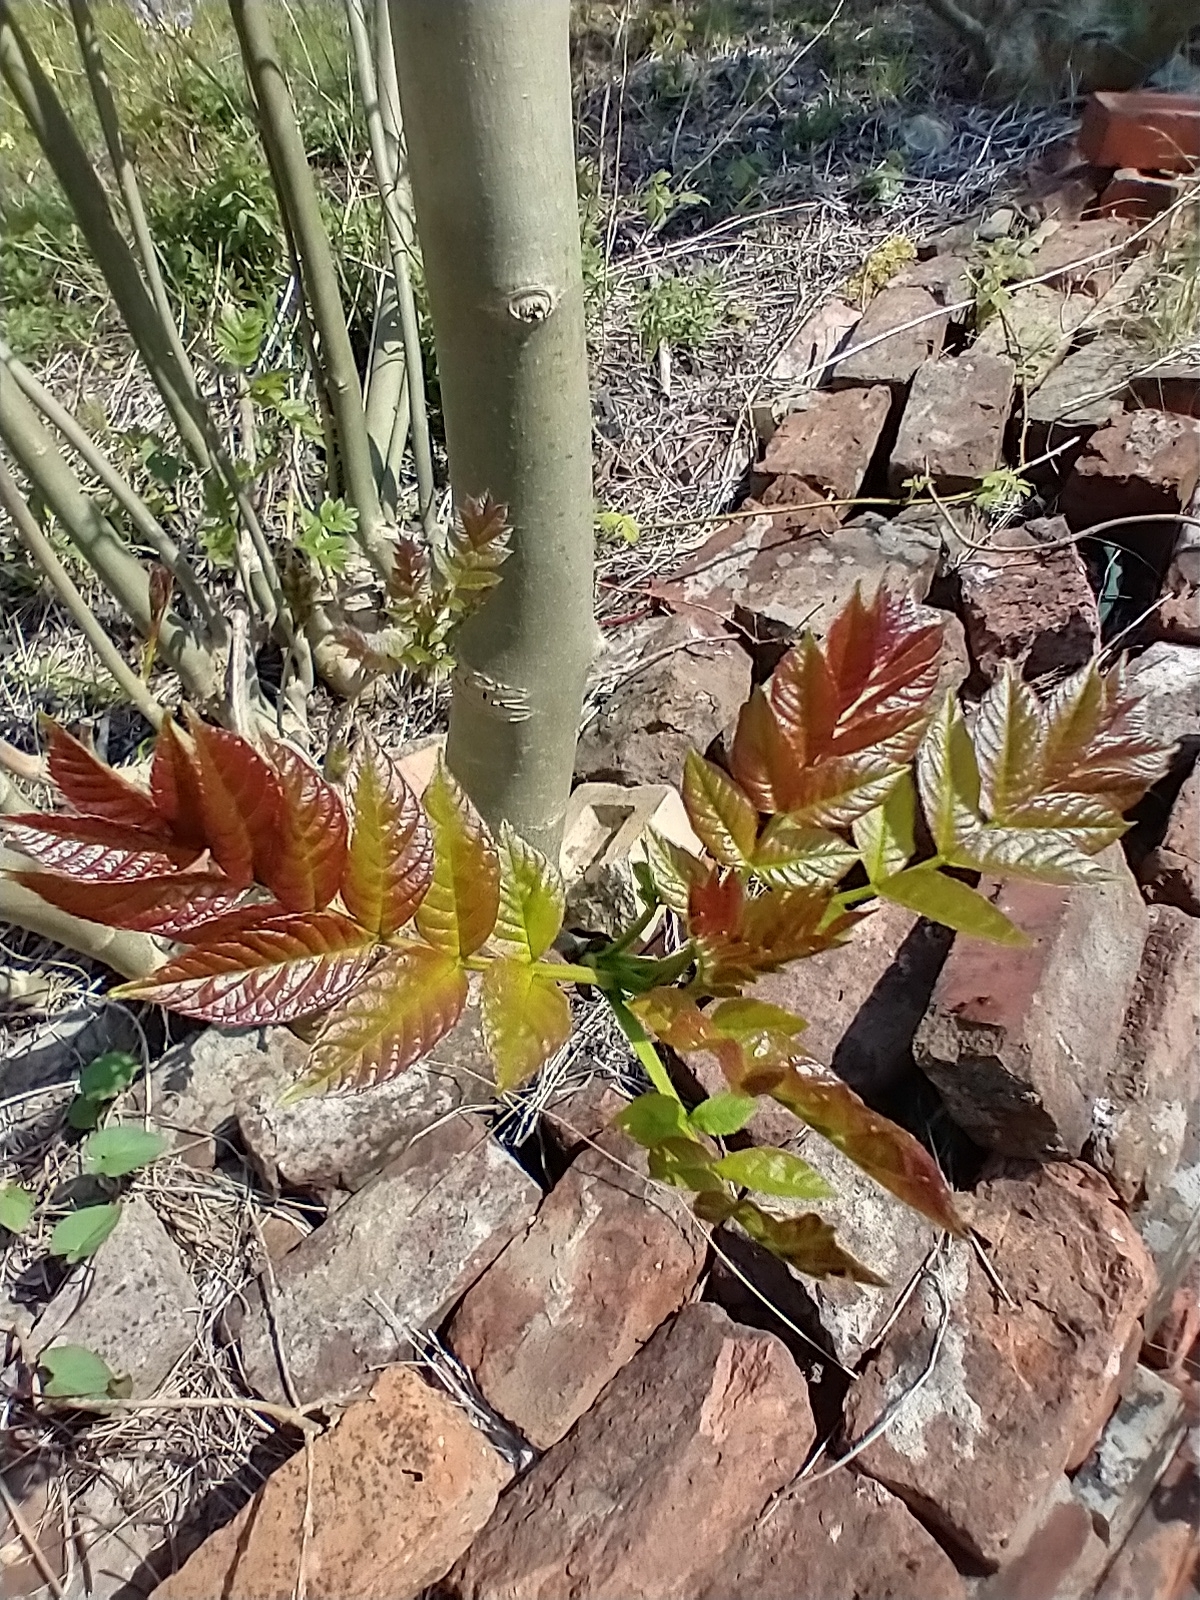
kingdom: Plantae
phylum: Tracheophyta
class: Magnoliopsida
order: Lamiales
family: Oleaceae
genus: Fraxinus
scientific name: Fraxinus excelsior
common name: European ash
